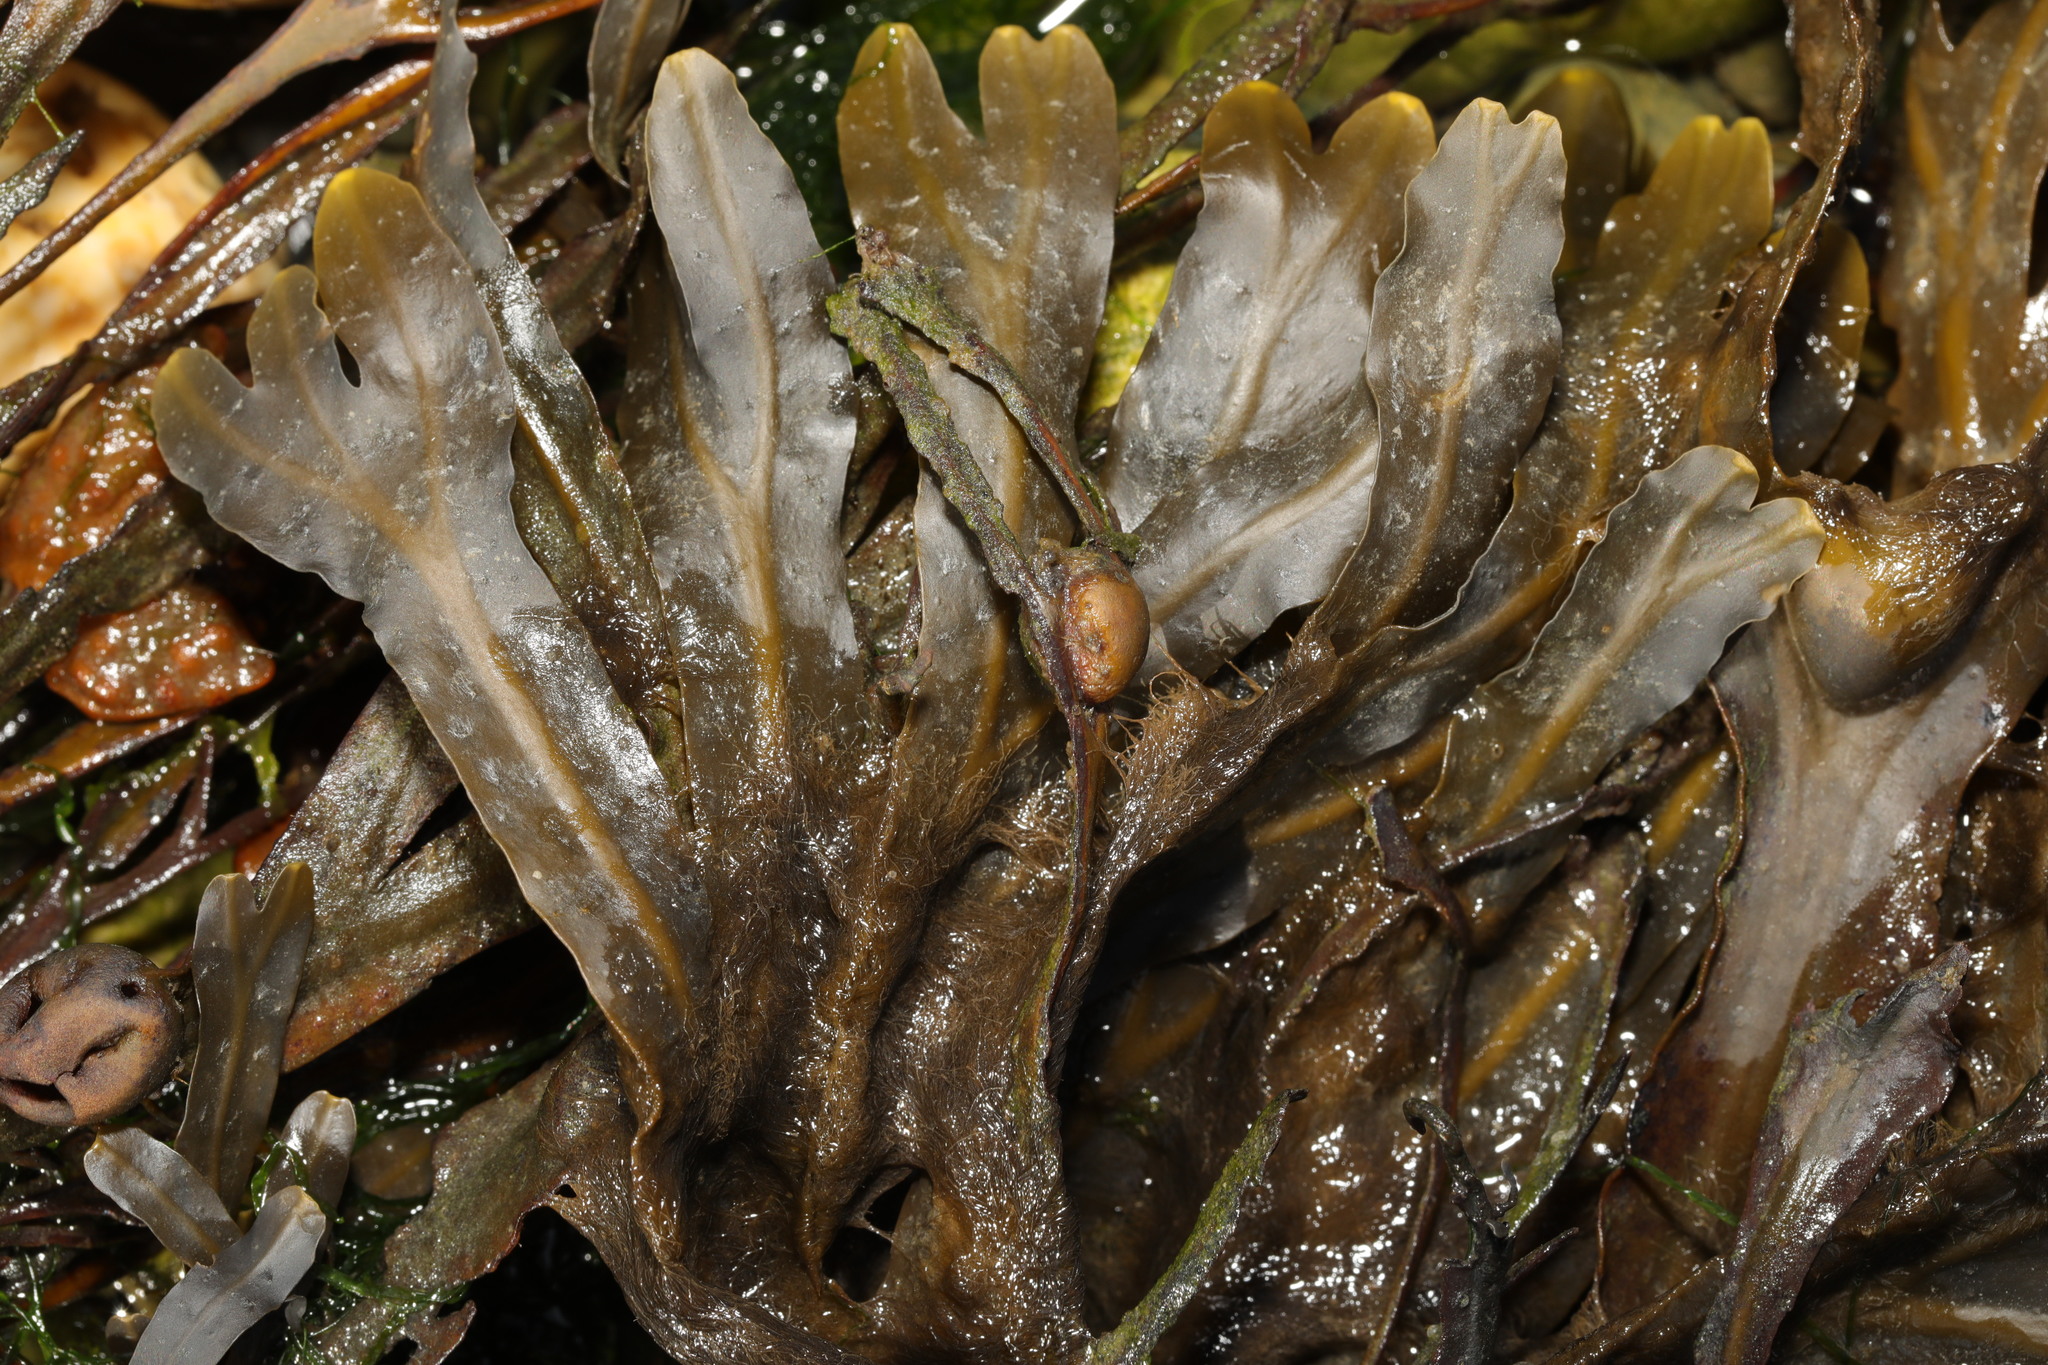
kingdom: Chromista
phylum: Ochrophyta
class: Phaeophyceae
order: Fucales
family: Fucaceae
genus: Fucus
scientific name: Fucus vesiculosus
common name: Bladder wrack
